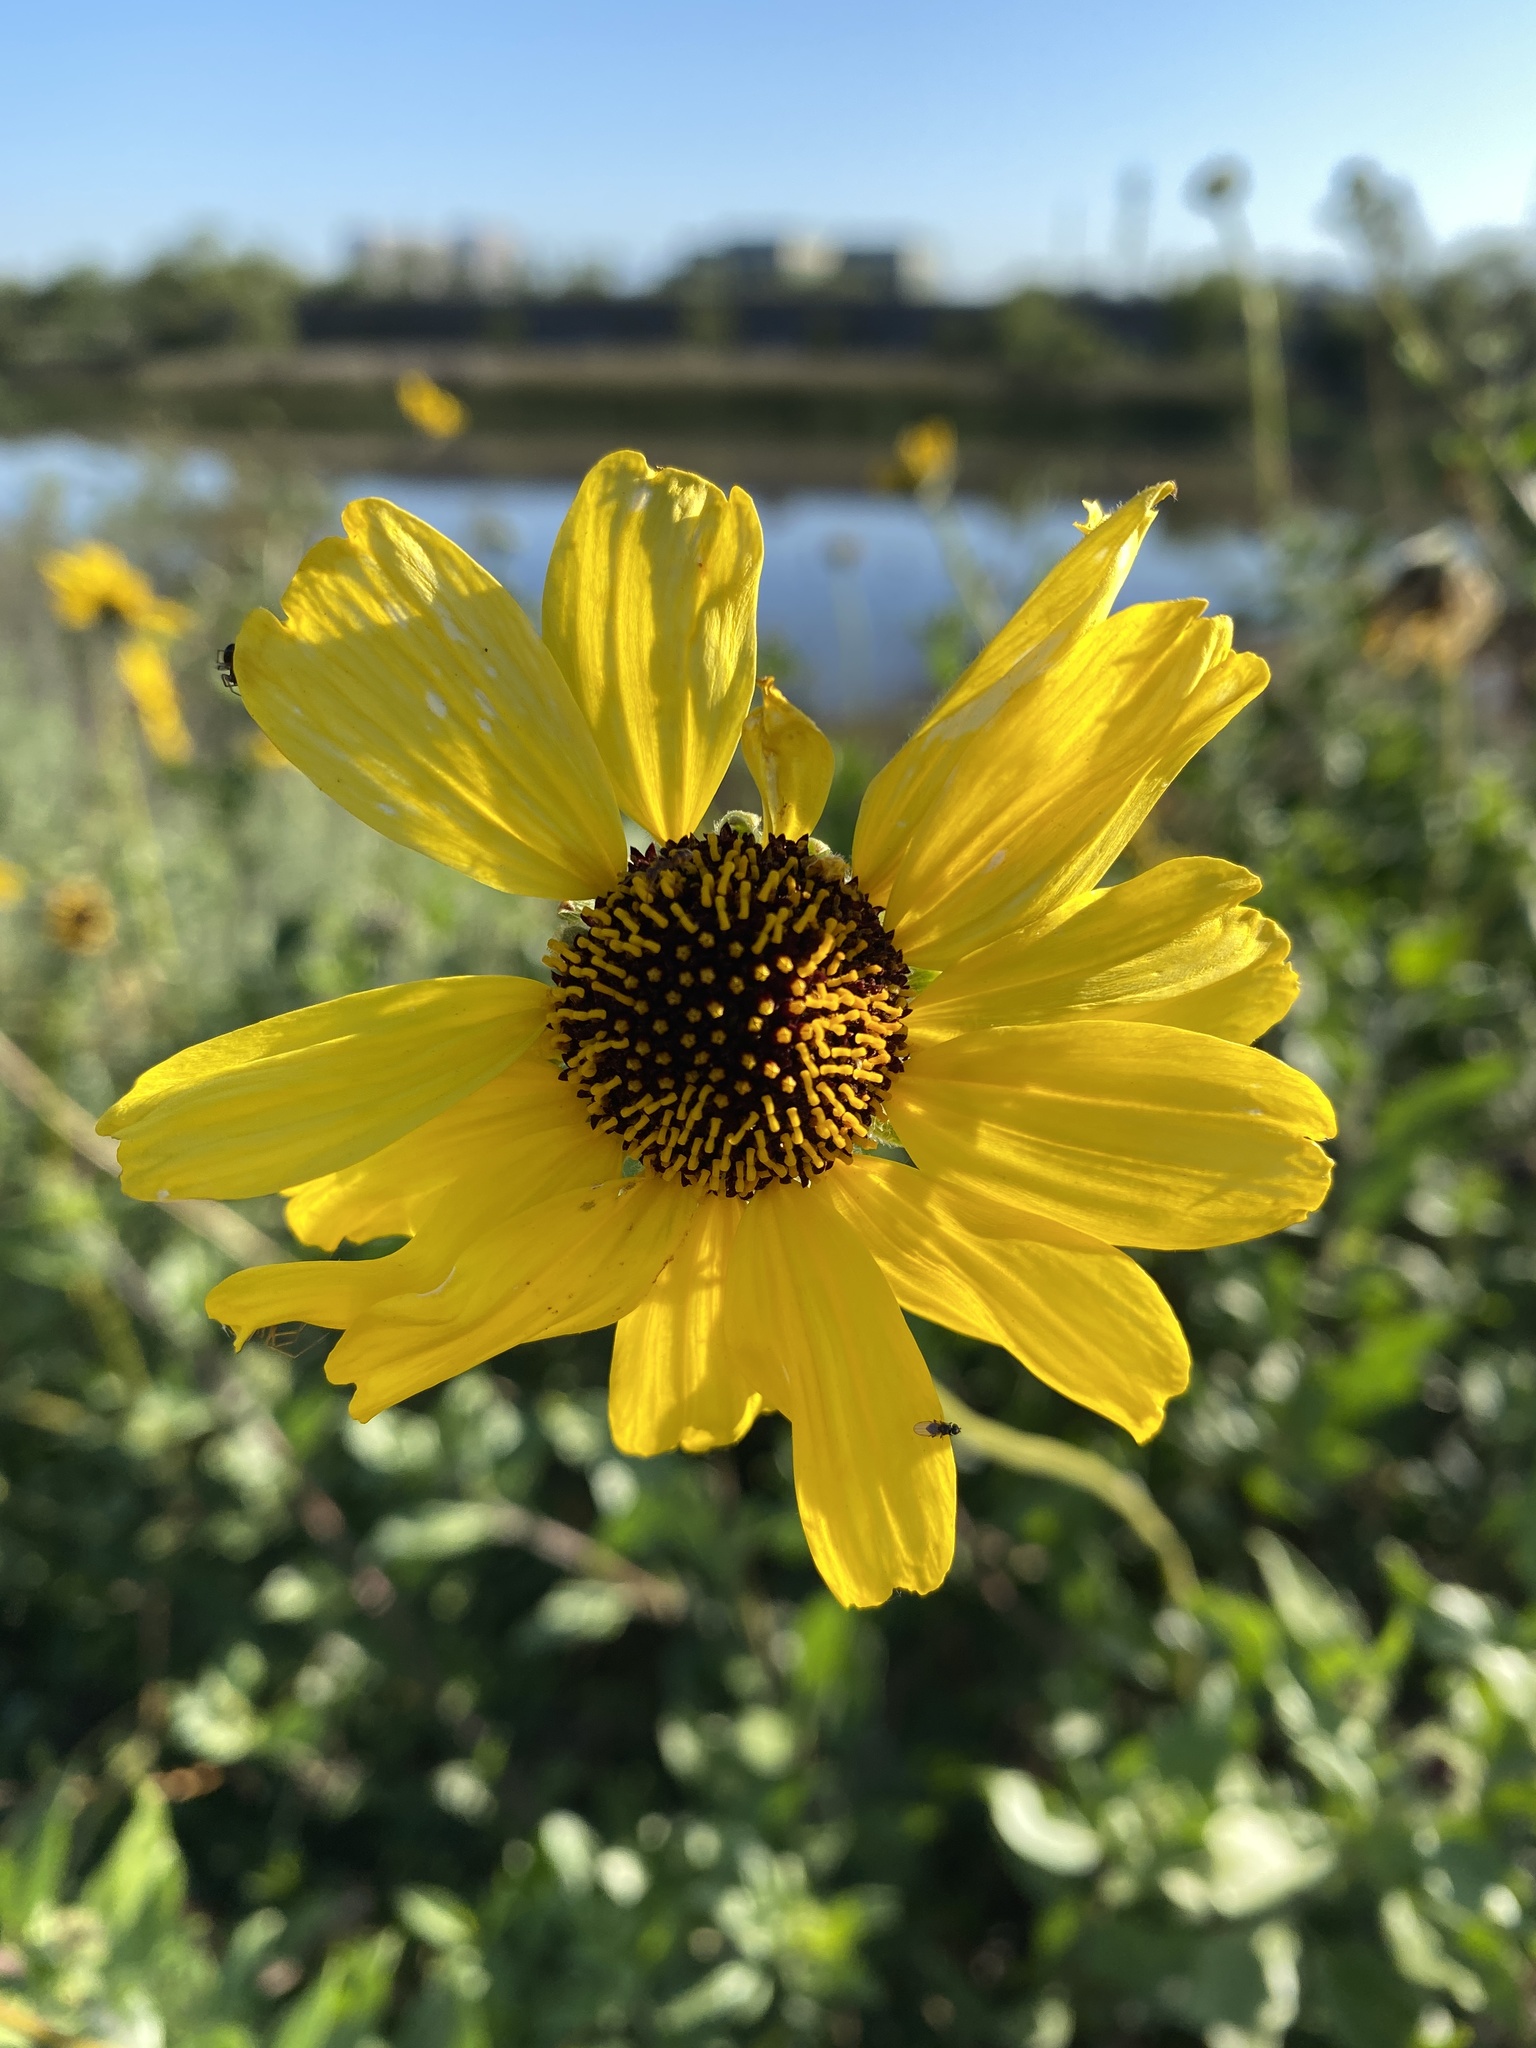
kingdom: Plantae
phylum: Tracheophyta
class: Magnoliopsida
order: Asterales
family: Asteraceae
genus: Encelia
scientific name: Encelia californica
